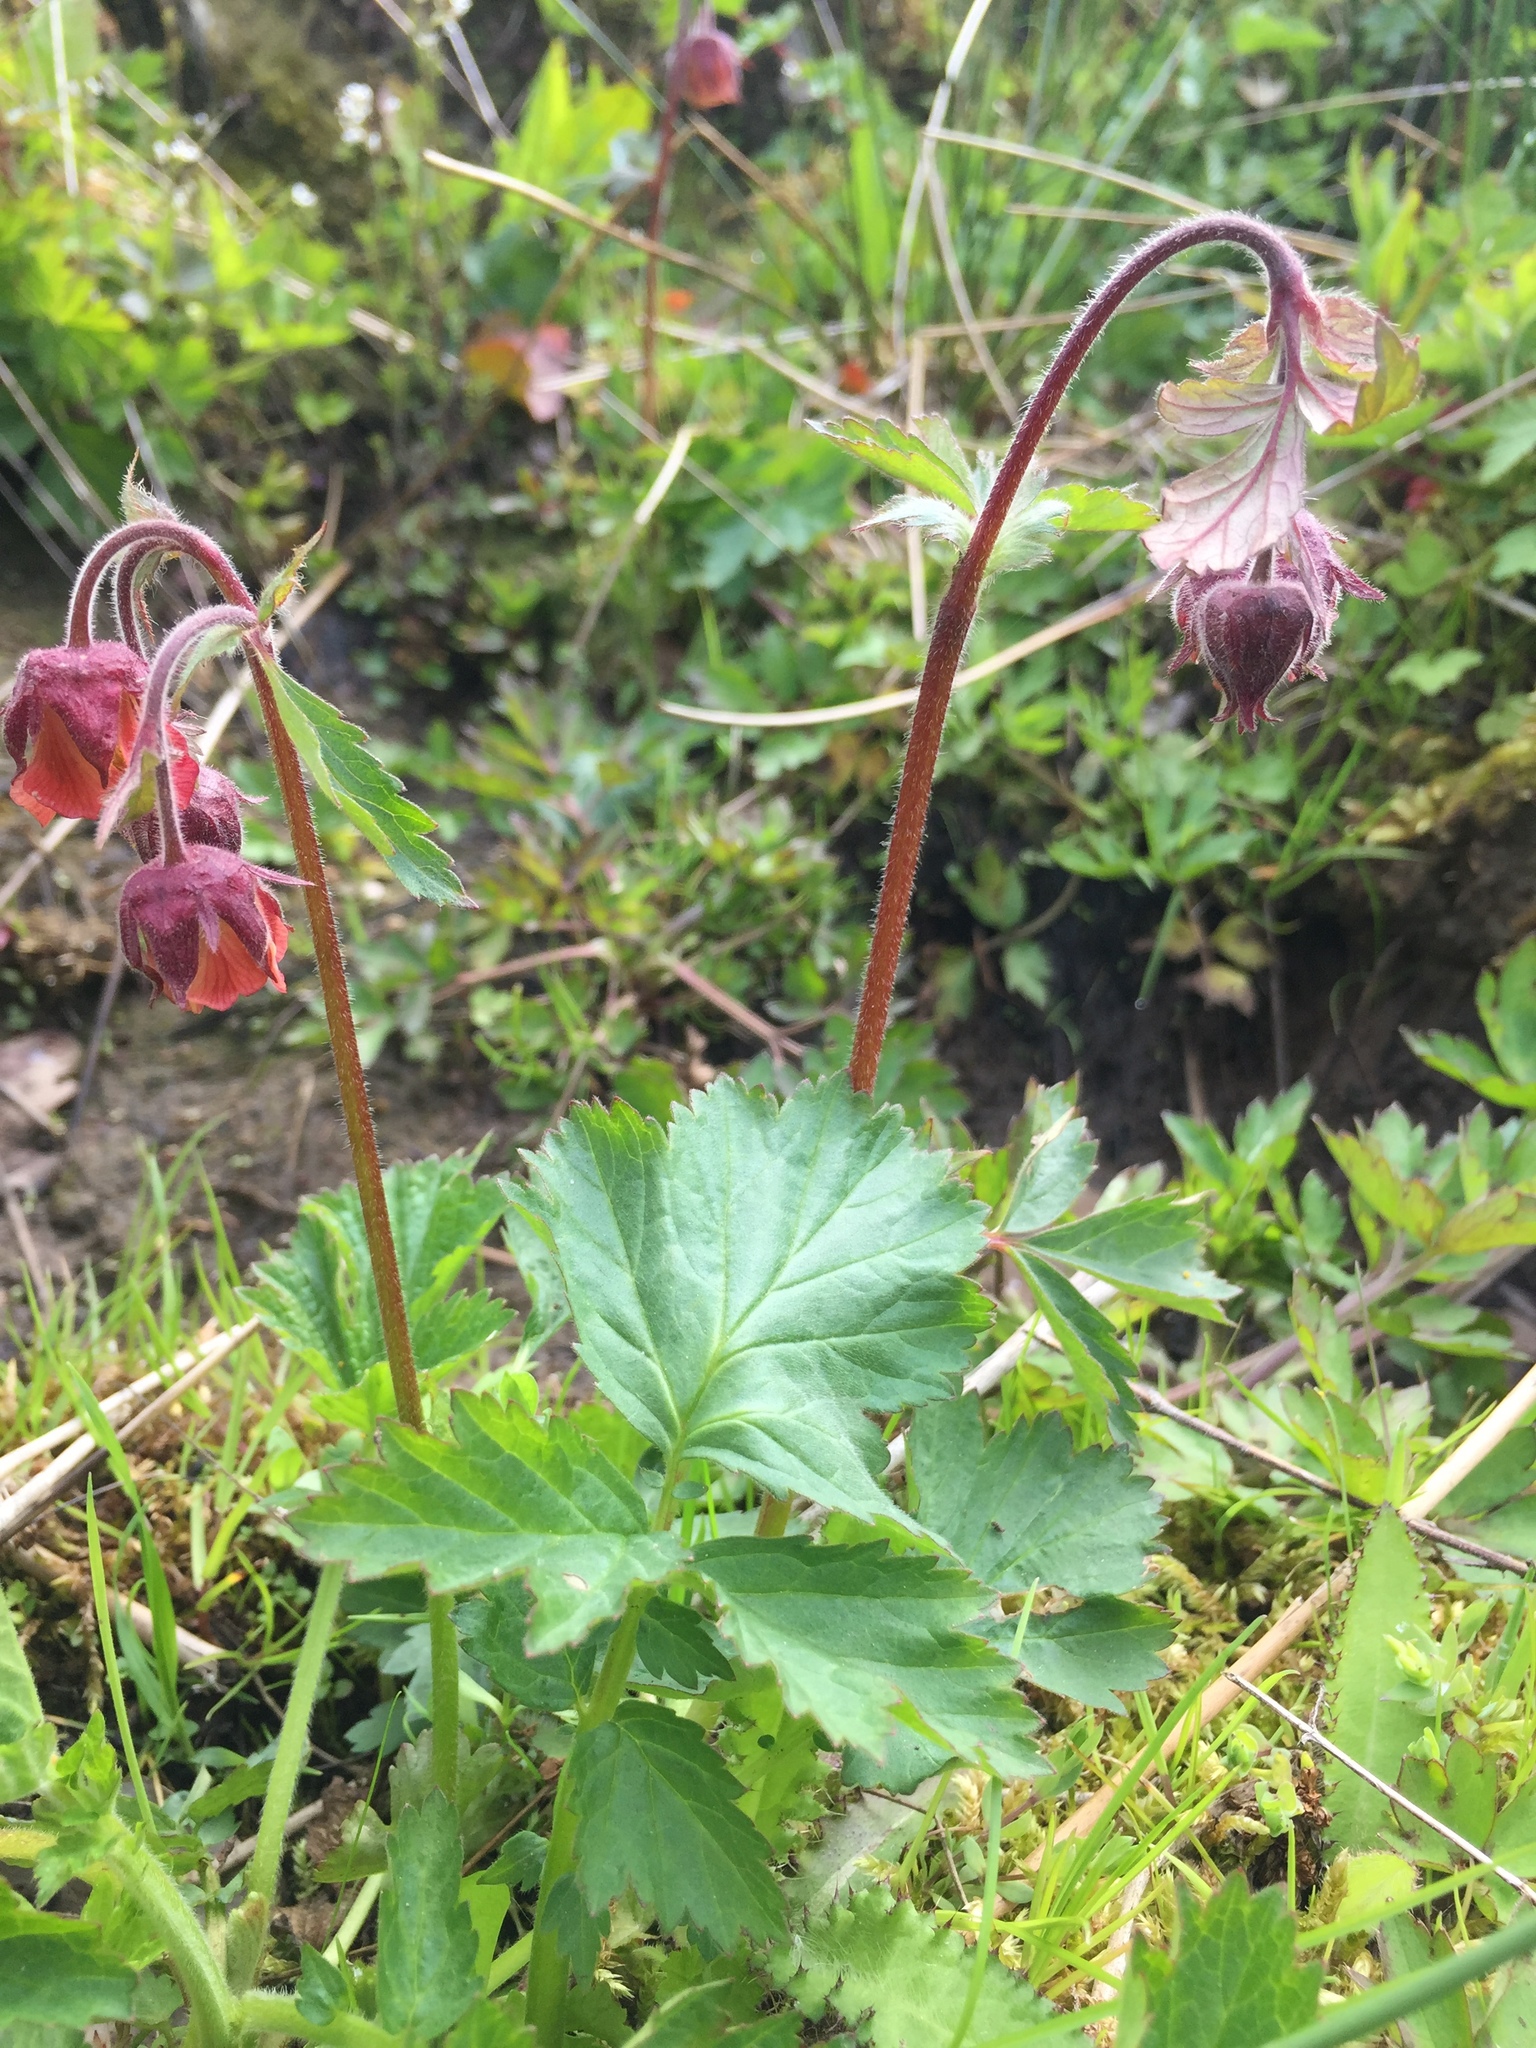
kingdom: Plantae
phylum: Tracheophyta
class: Magnoliopsida
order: Rosales
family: Rosaceae
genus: Geum
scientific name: Geum rivale
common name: Water avens
